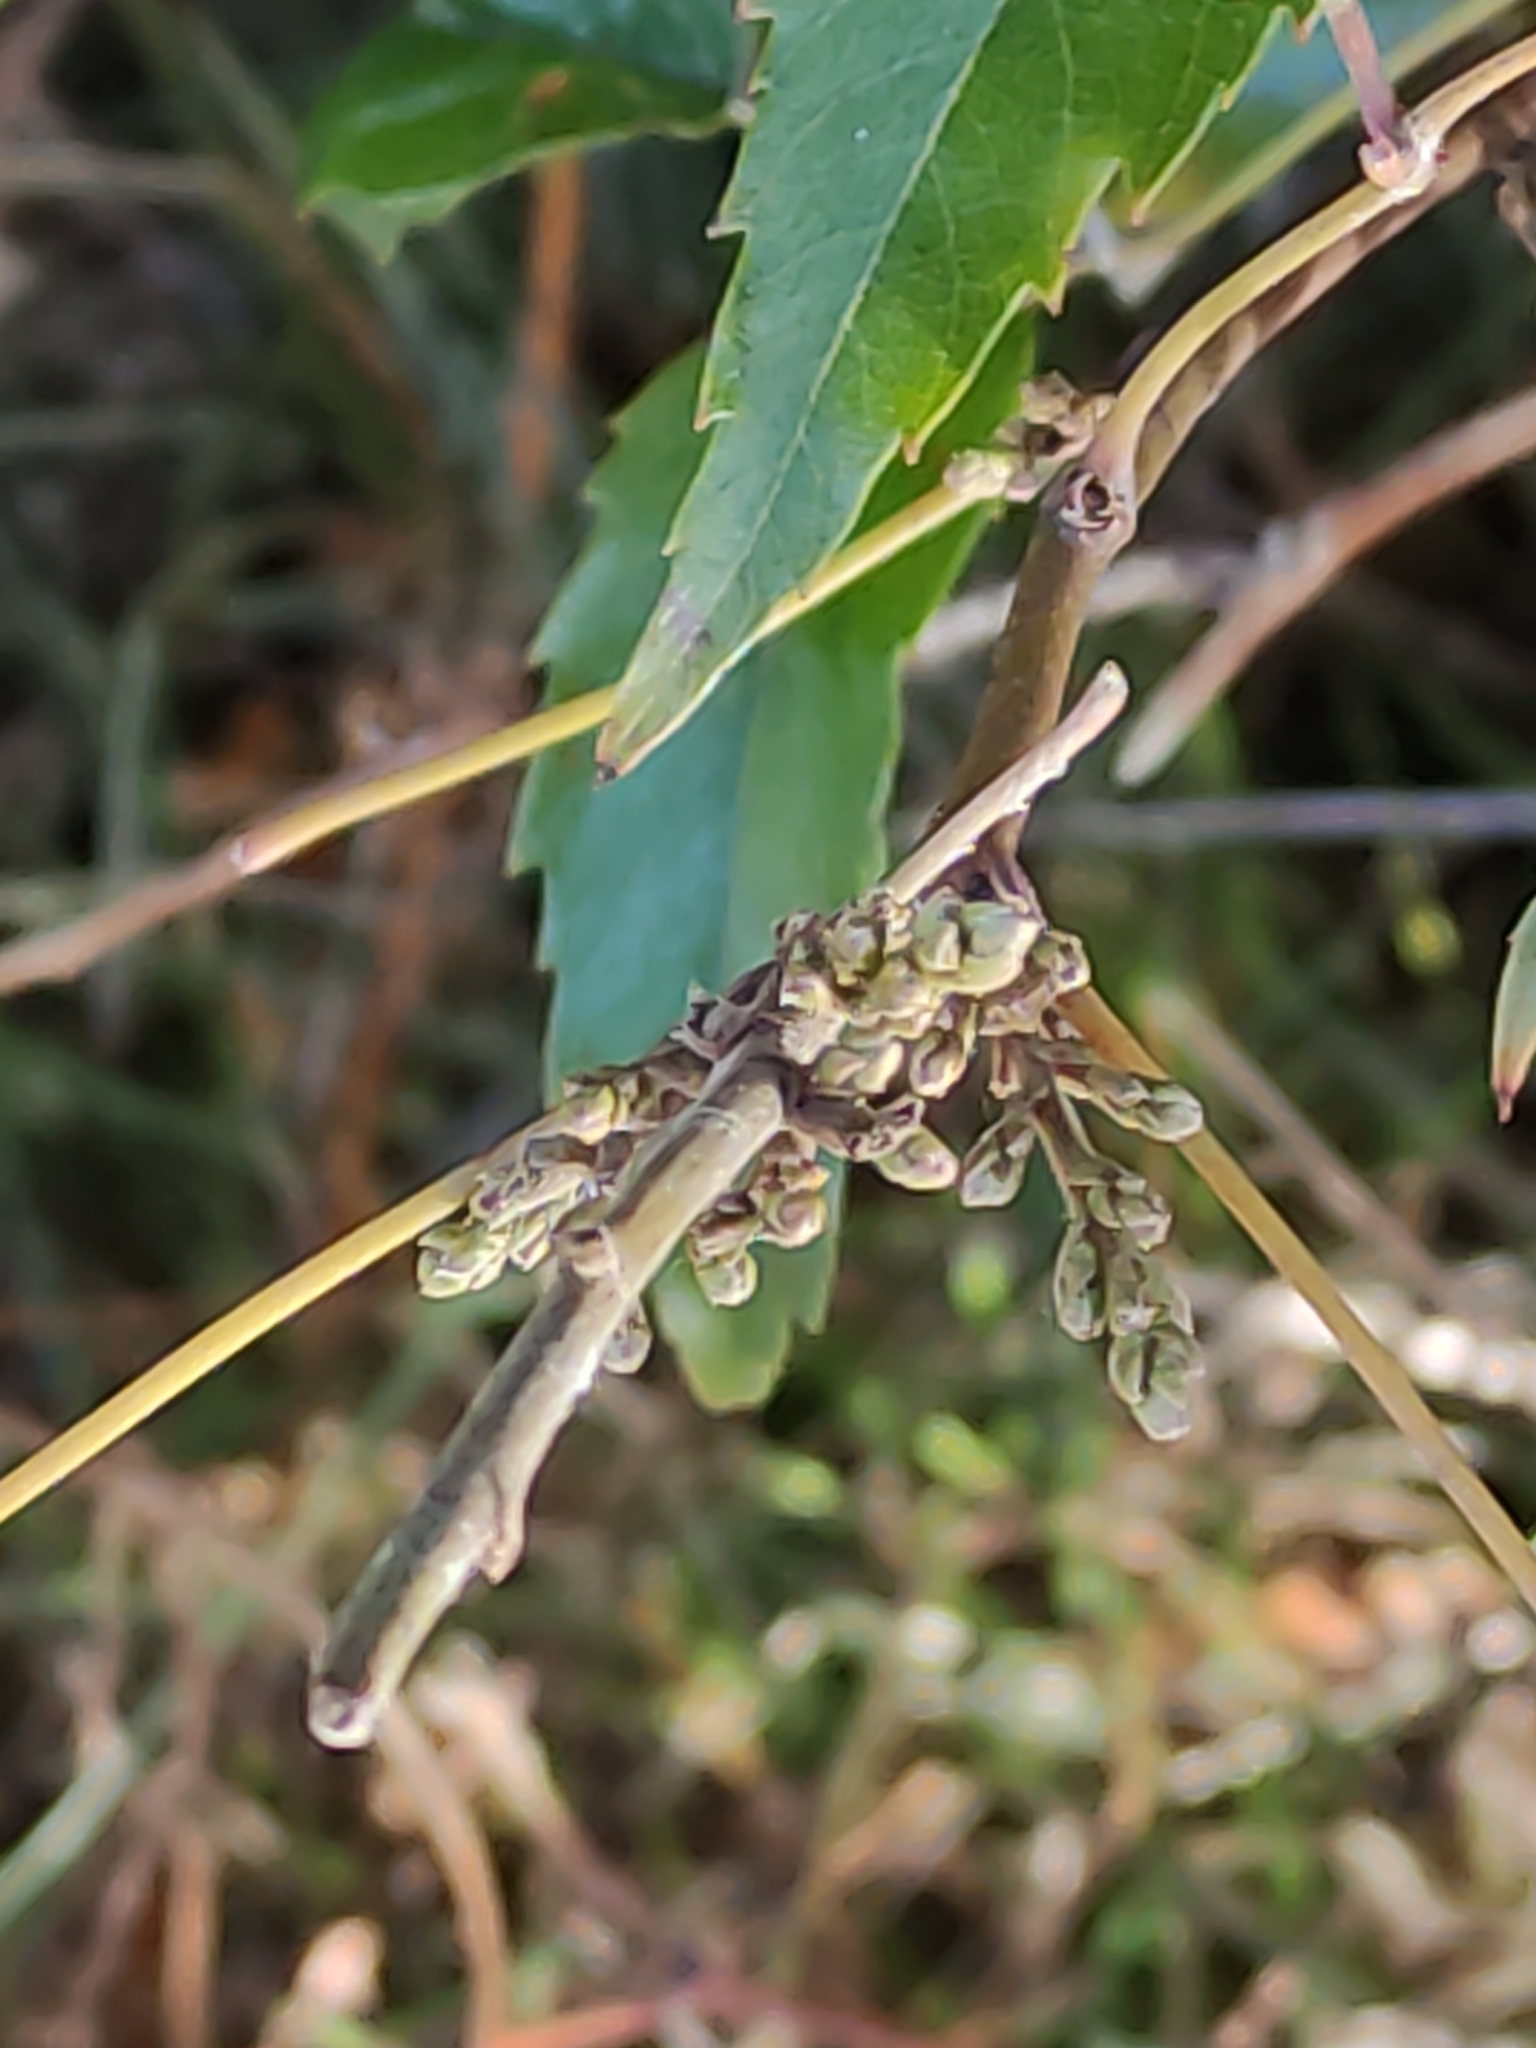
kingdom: Plantae
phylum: Tracheophyta
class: Magnoliopsida
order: Rosales
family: Rosaceae
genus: Rubus
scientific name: Rubus cissoides
